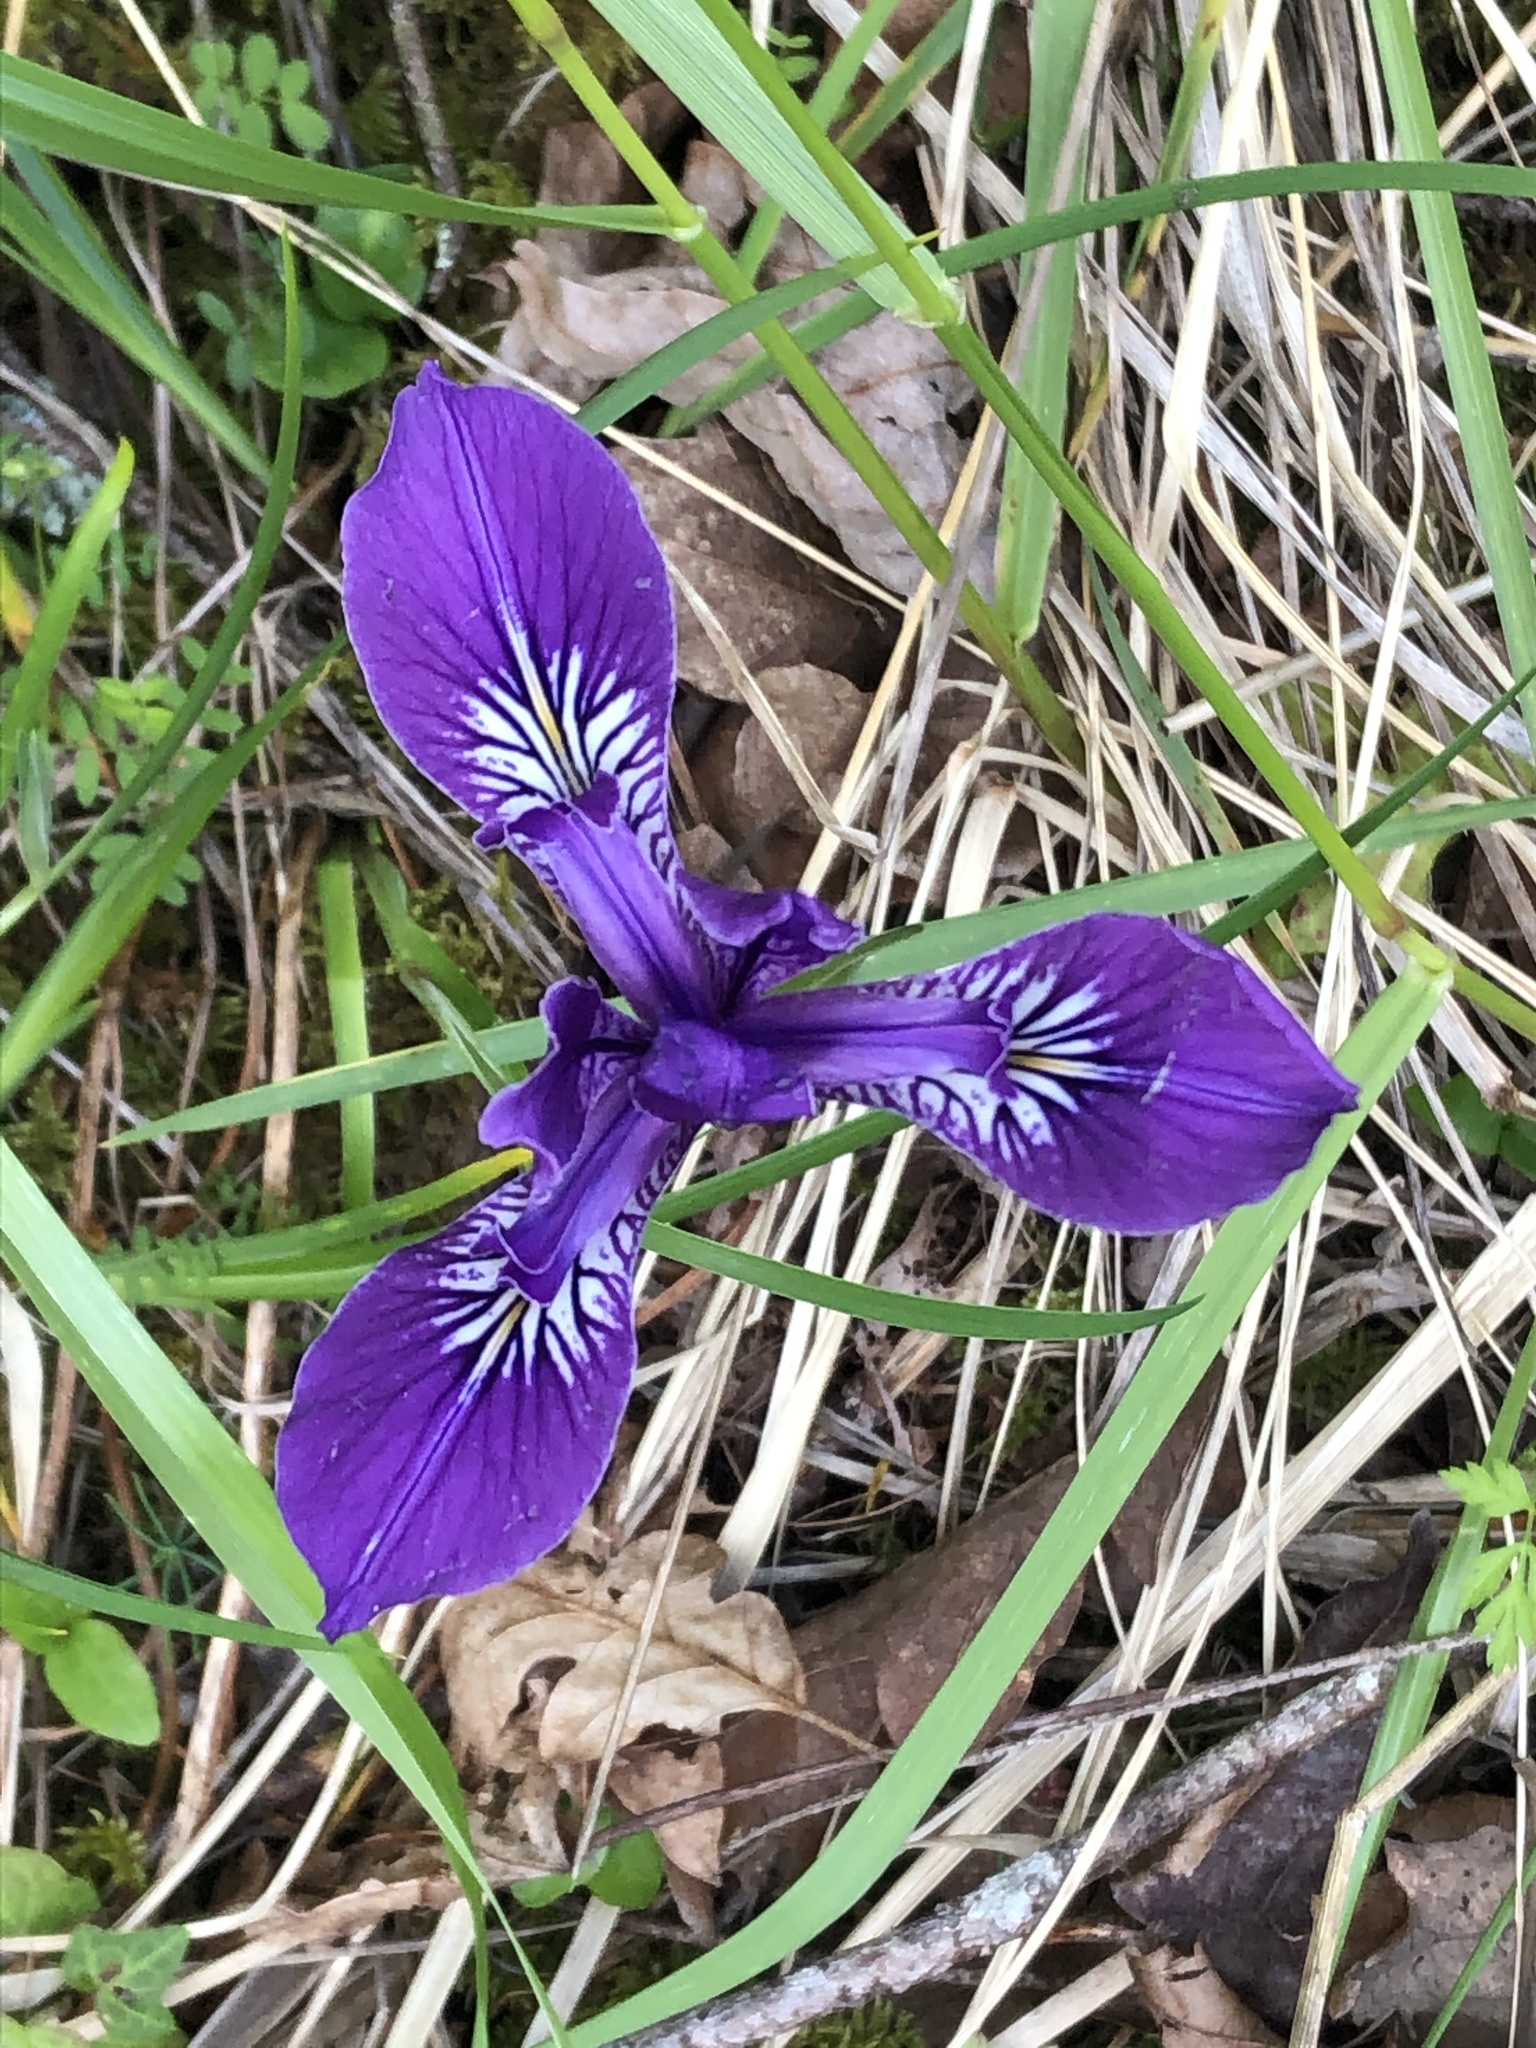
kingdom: Plantae
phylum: Tracheophyta
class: Liliopsida
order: Asparagales
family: Iridaceae
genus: Iris
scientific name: Iris tenax
